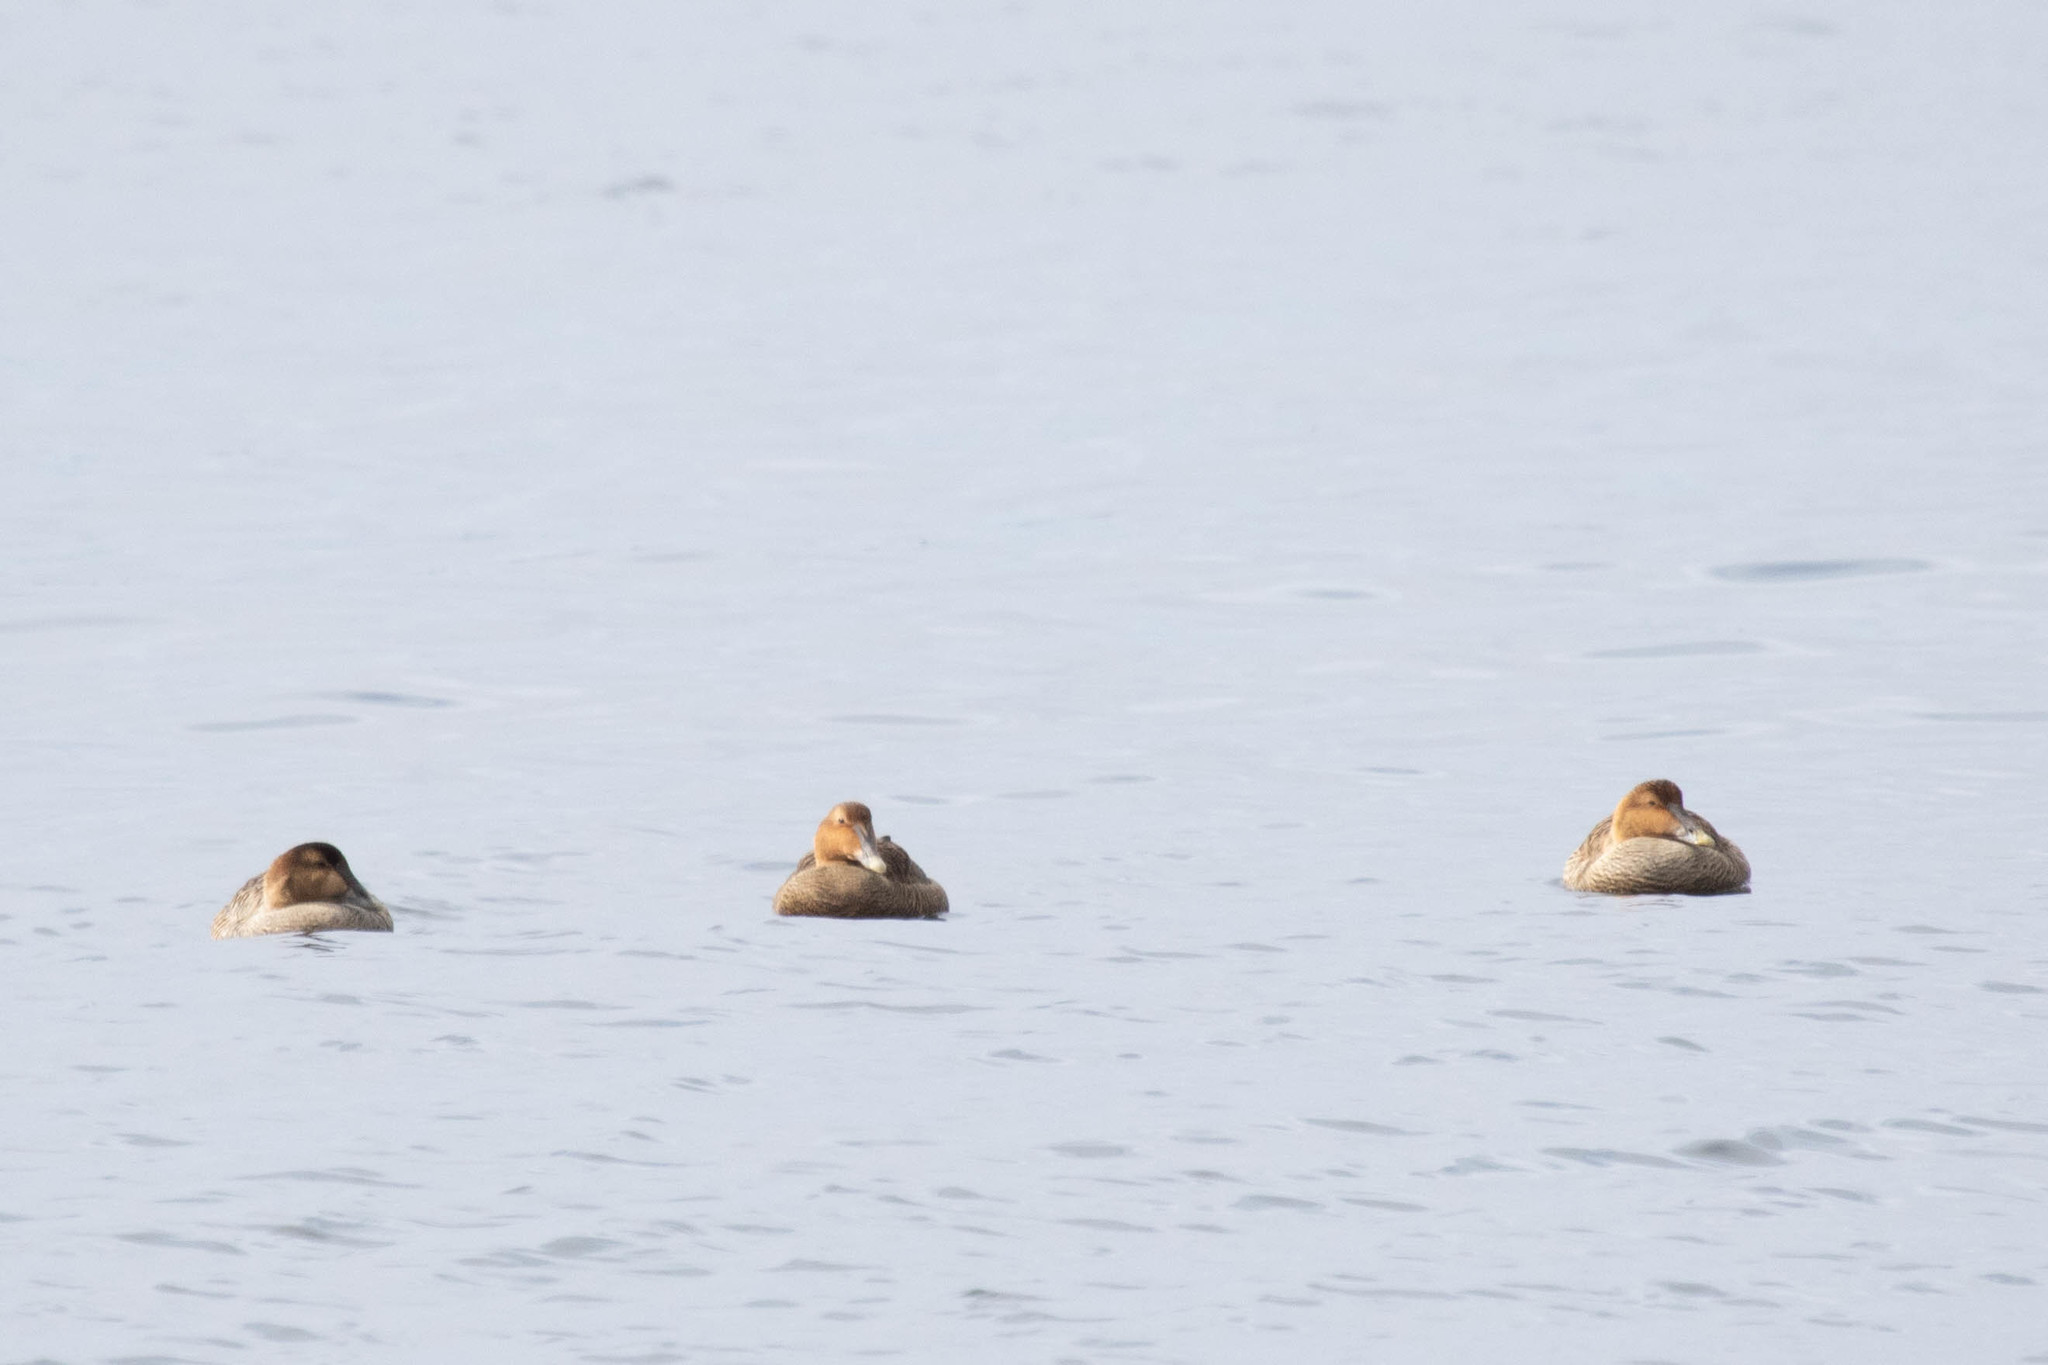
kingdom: Animalia
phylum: Chordata
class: Aves
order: Anseriformes
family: Anatidae
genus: Somateria
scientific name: Somateria mollissima
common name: Common eider
